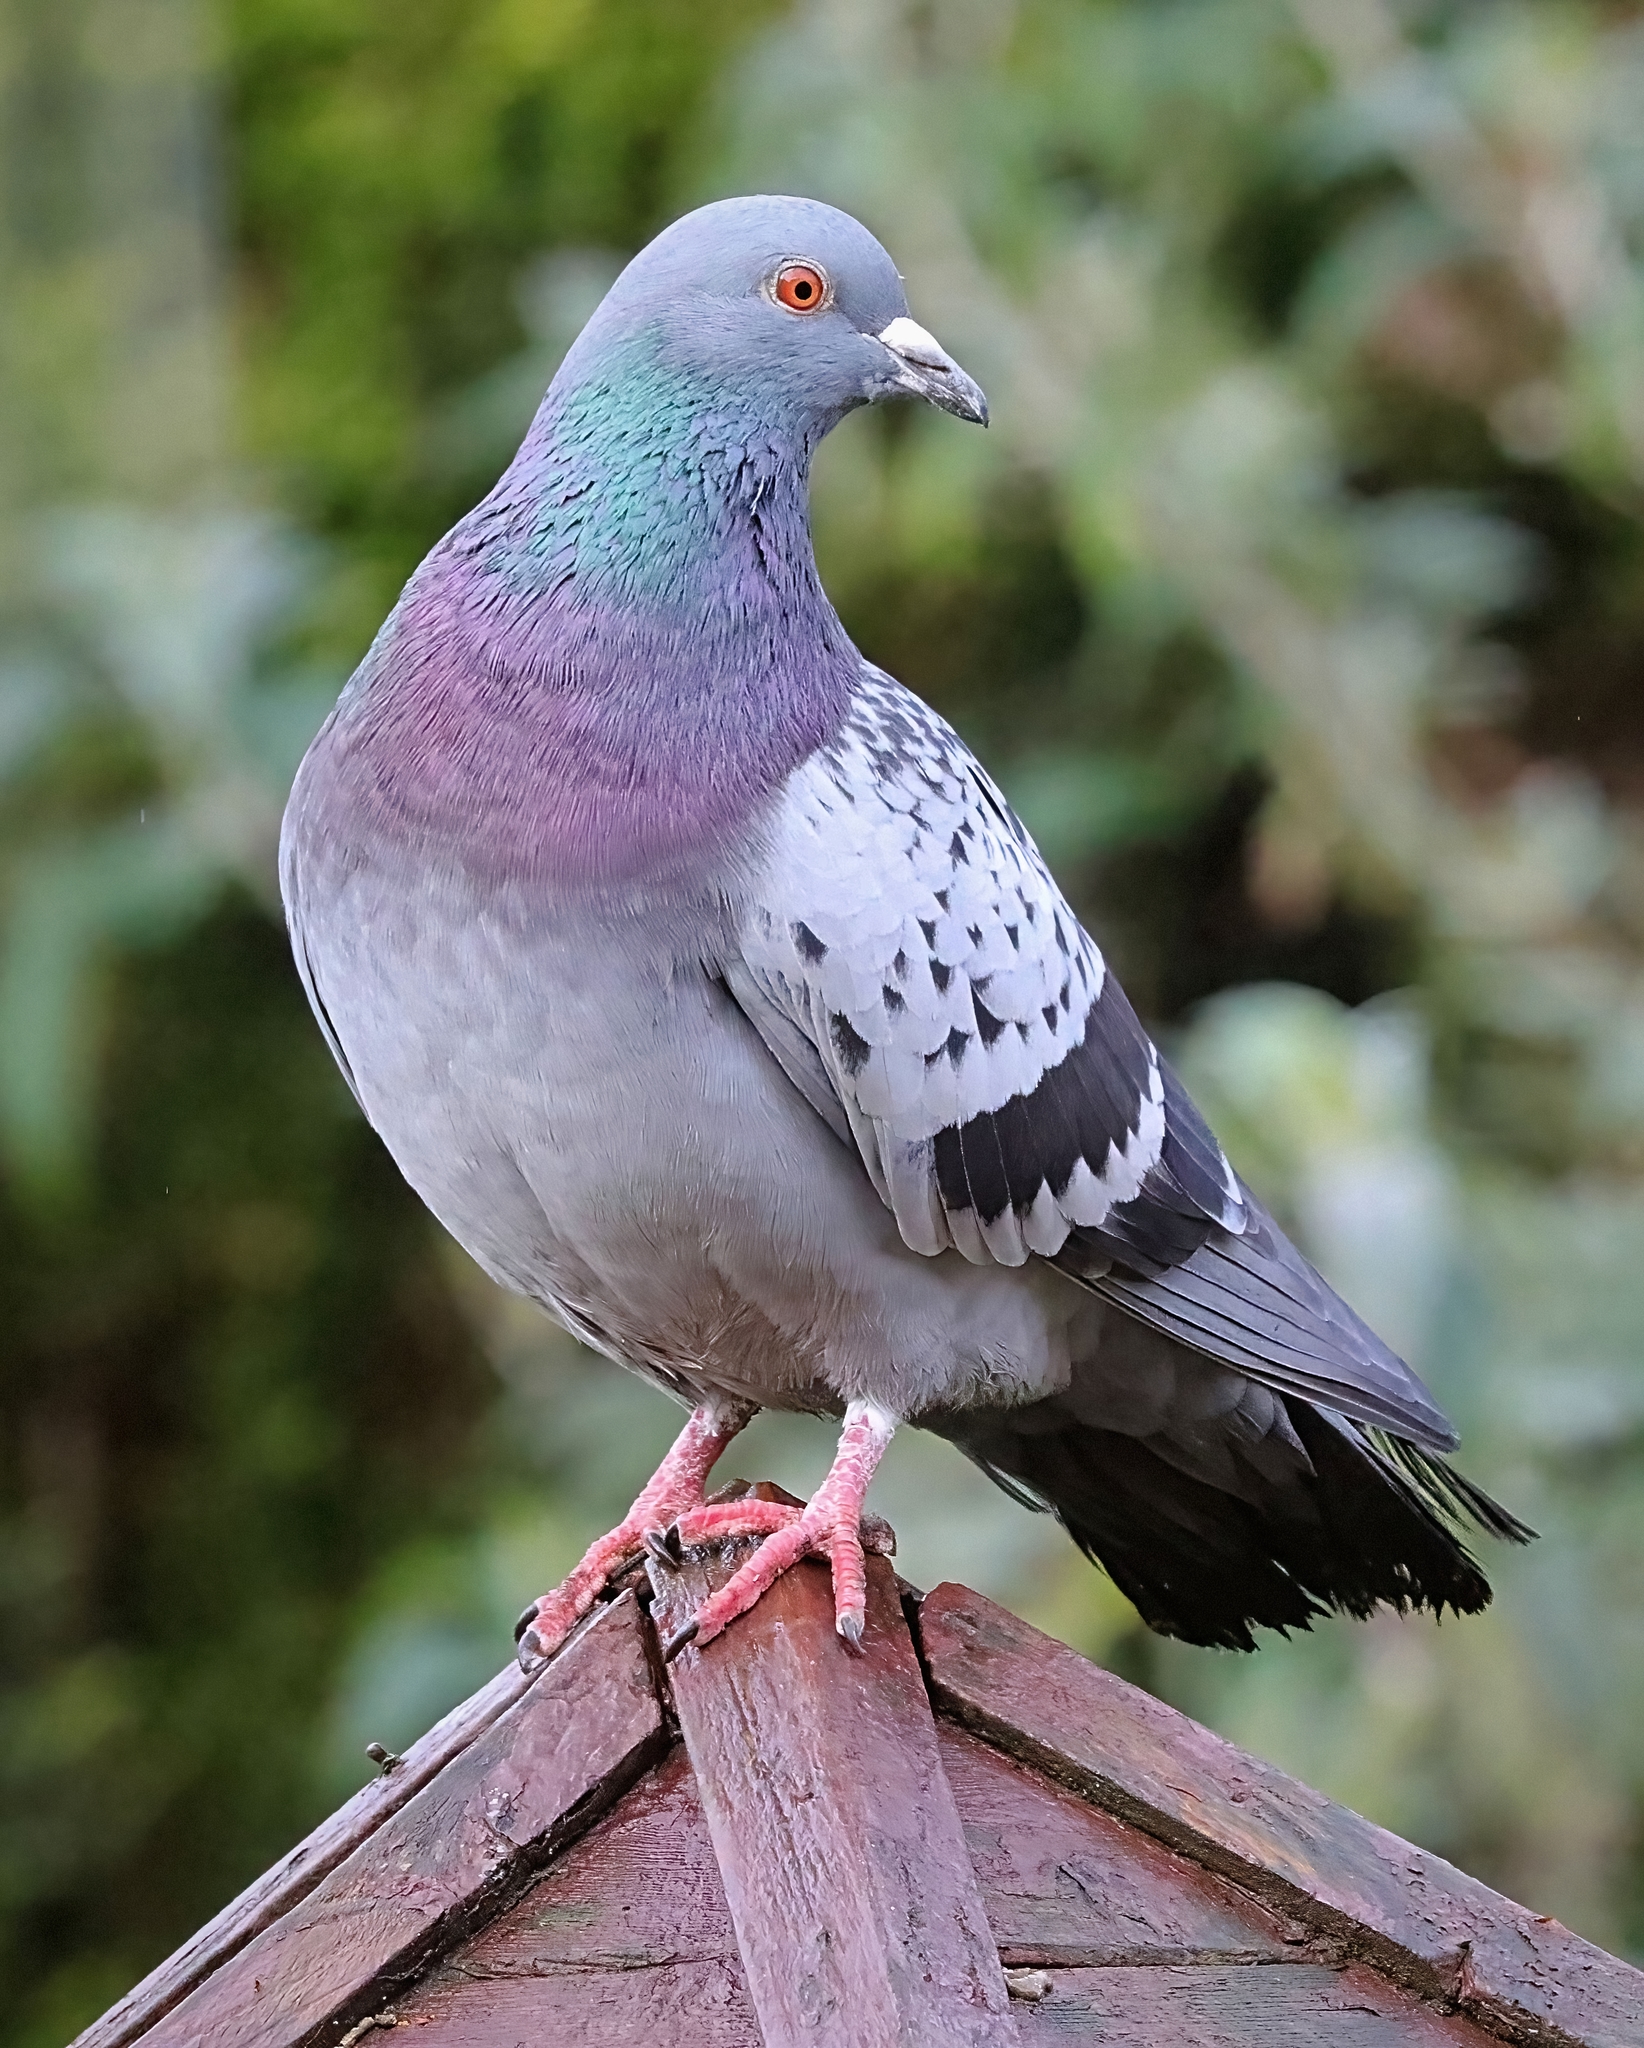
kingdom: Animalia
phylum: Chordata
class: Aves
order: Columbiformes
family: Columbidae
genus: Columba
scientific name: Columba livia
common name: Rock pigeon
